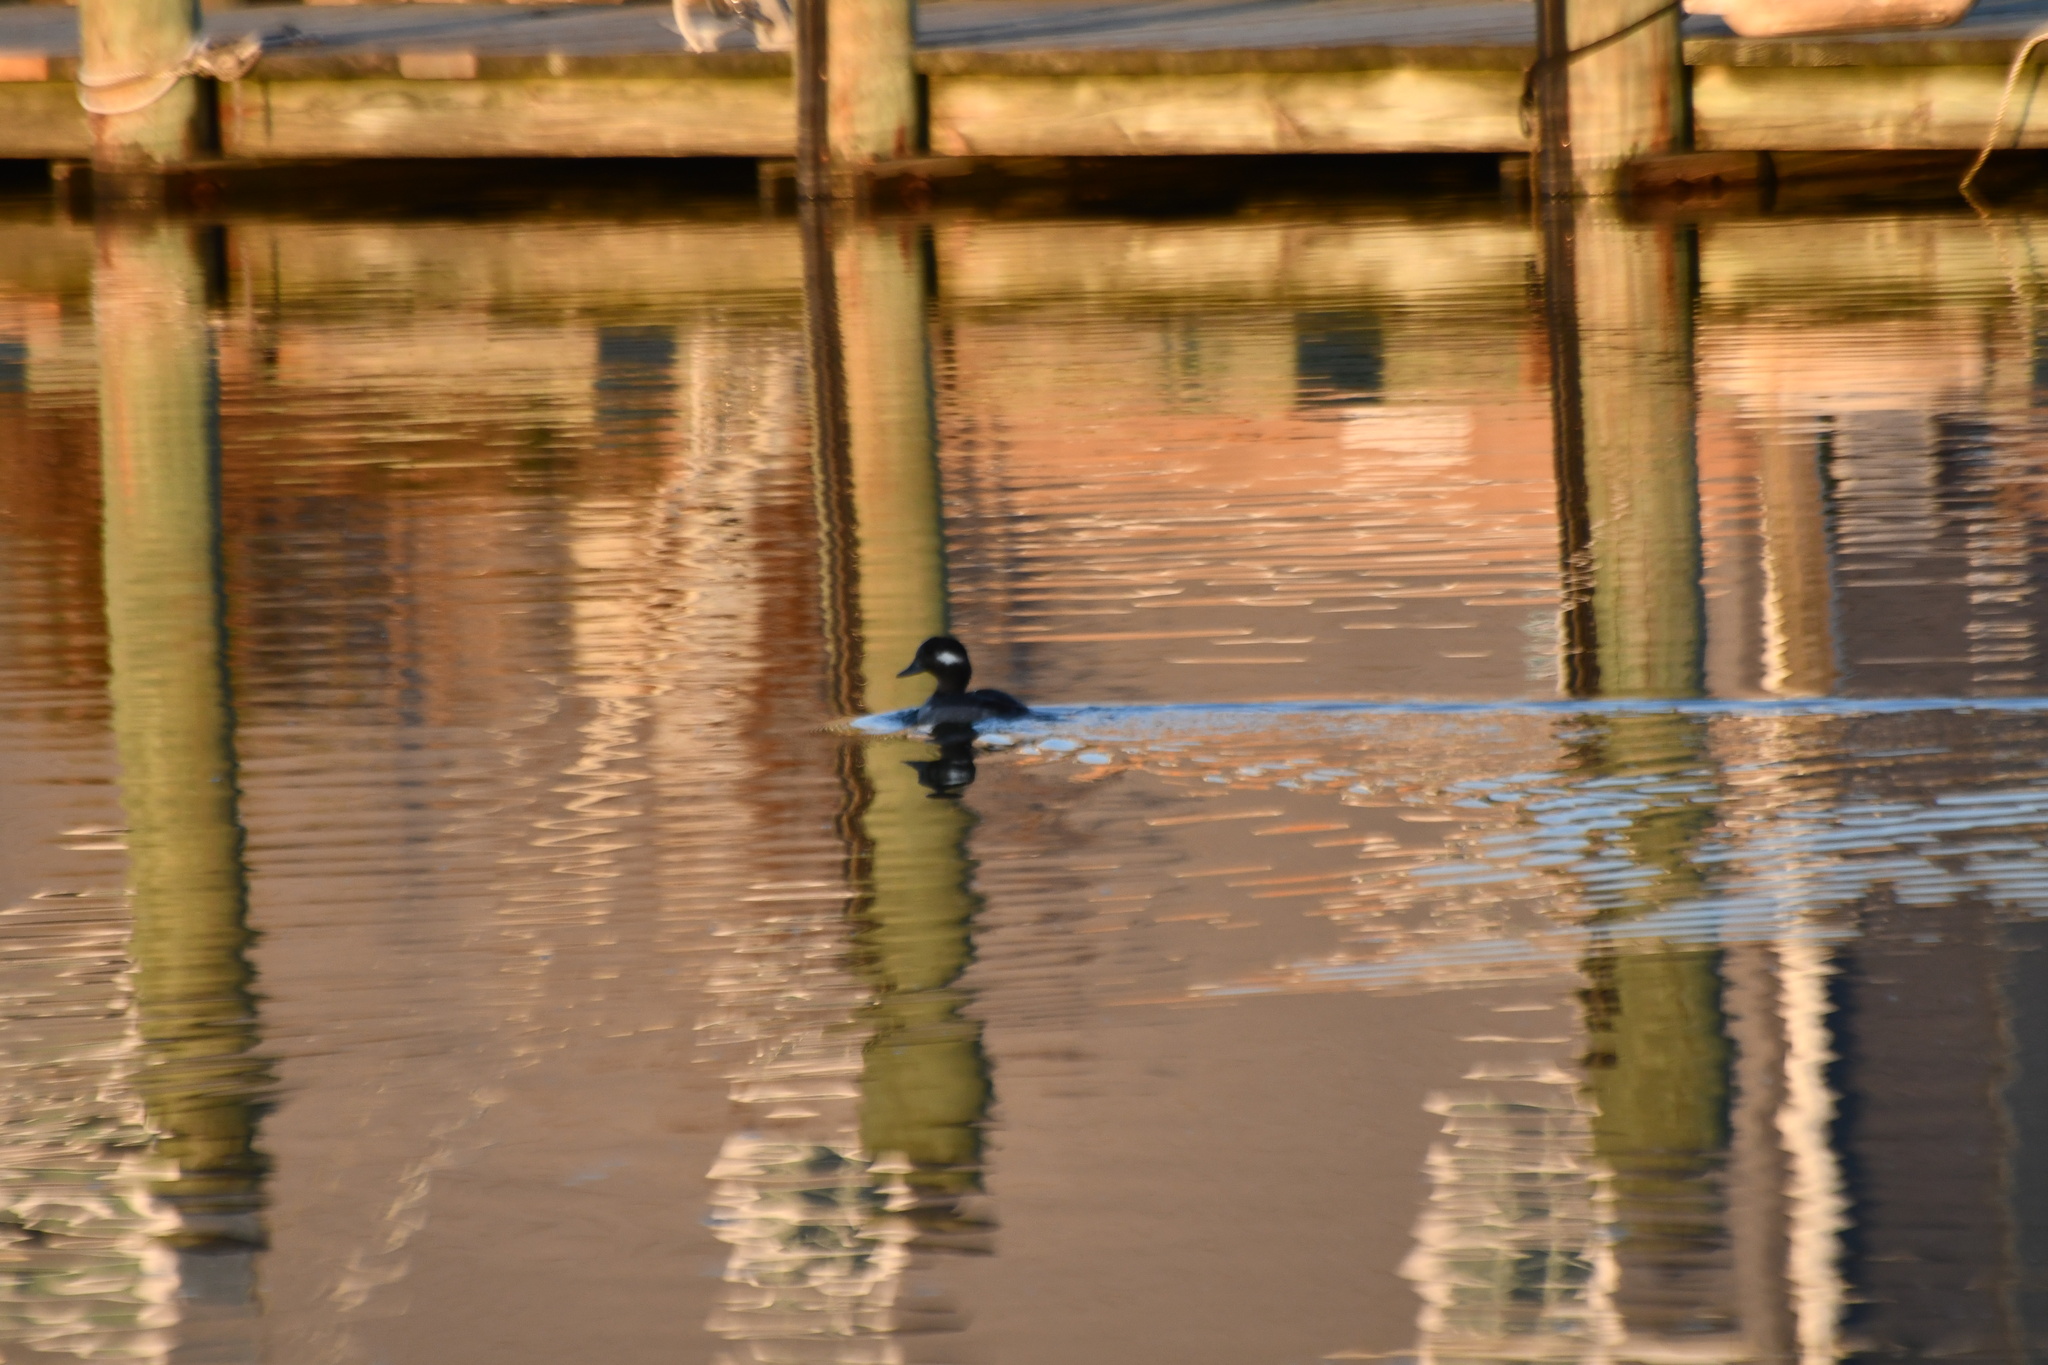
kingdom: Animalia
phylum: Chordata
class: Aves
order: Anseriformes
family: Anatidae
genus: Bucephala
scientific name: Bucephala albeola
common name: Bufflehead
